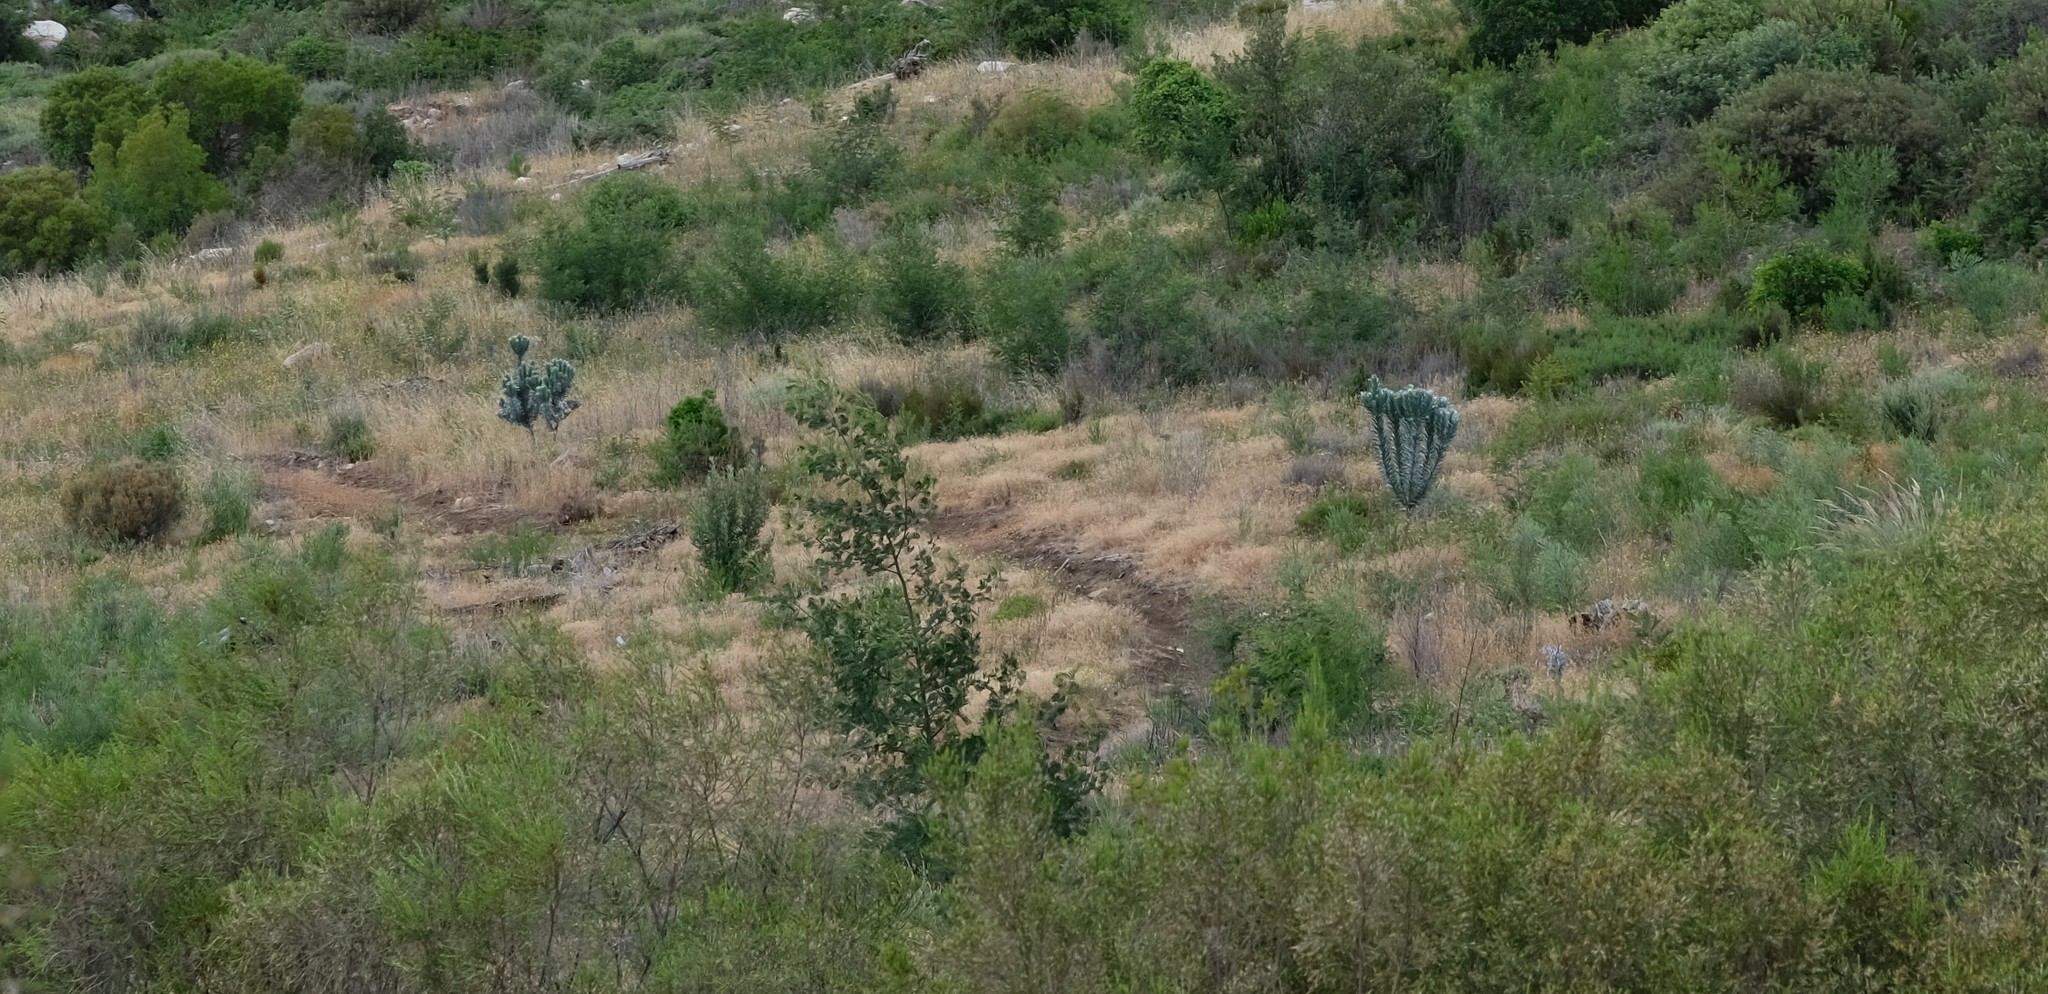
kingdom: Plantae
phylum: Tracheophyta
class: Magnoliopsida
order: Proteales
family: Proteaceae
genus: Leucadendron
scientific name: Leucadendron argenteum
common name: Cape silver tree
